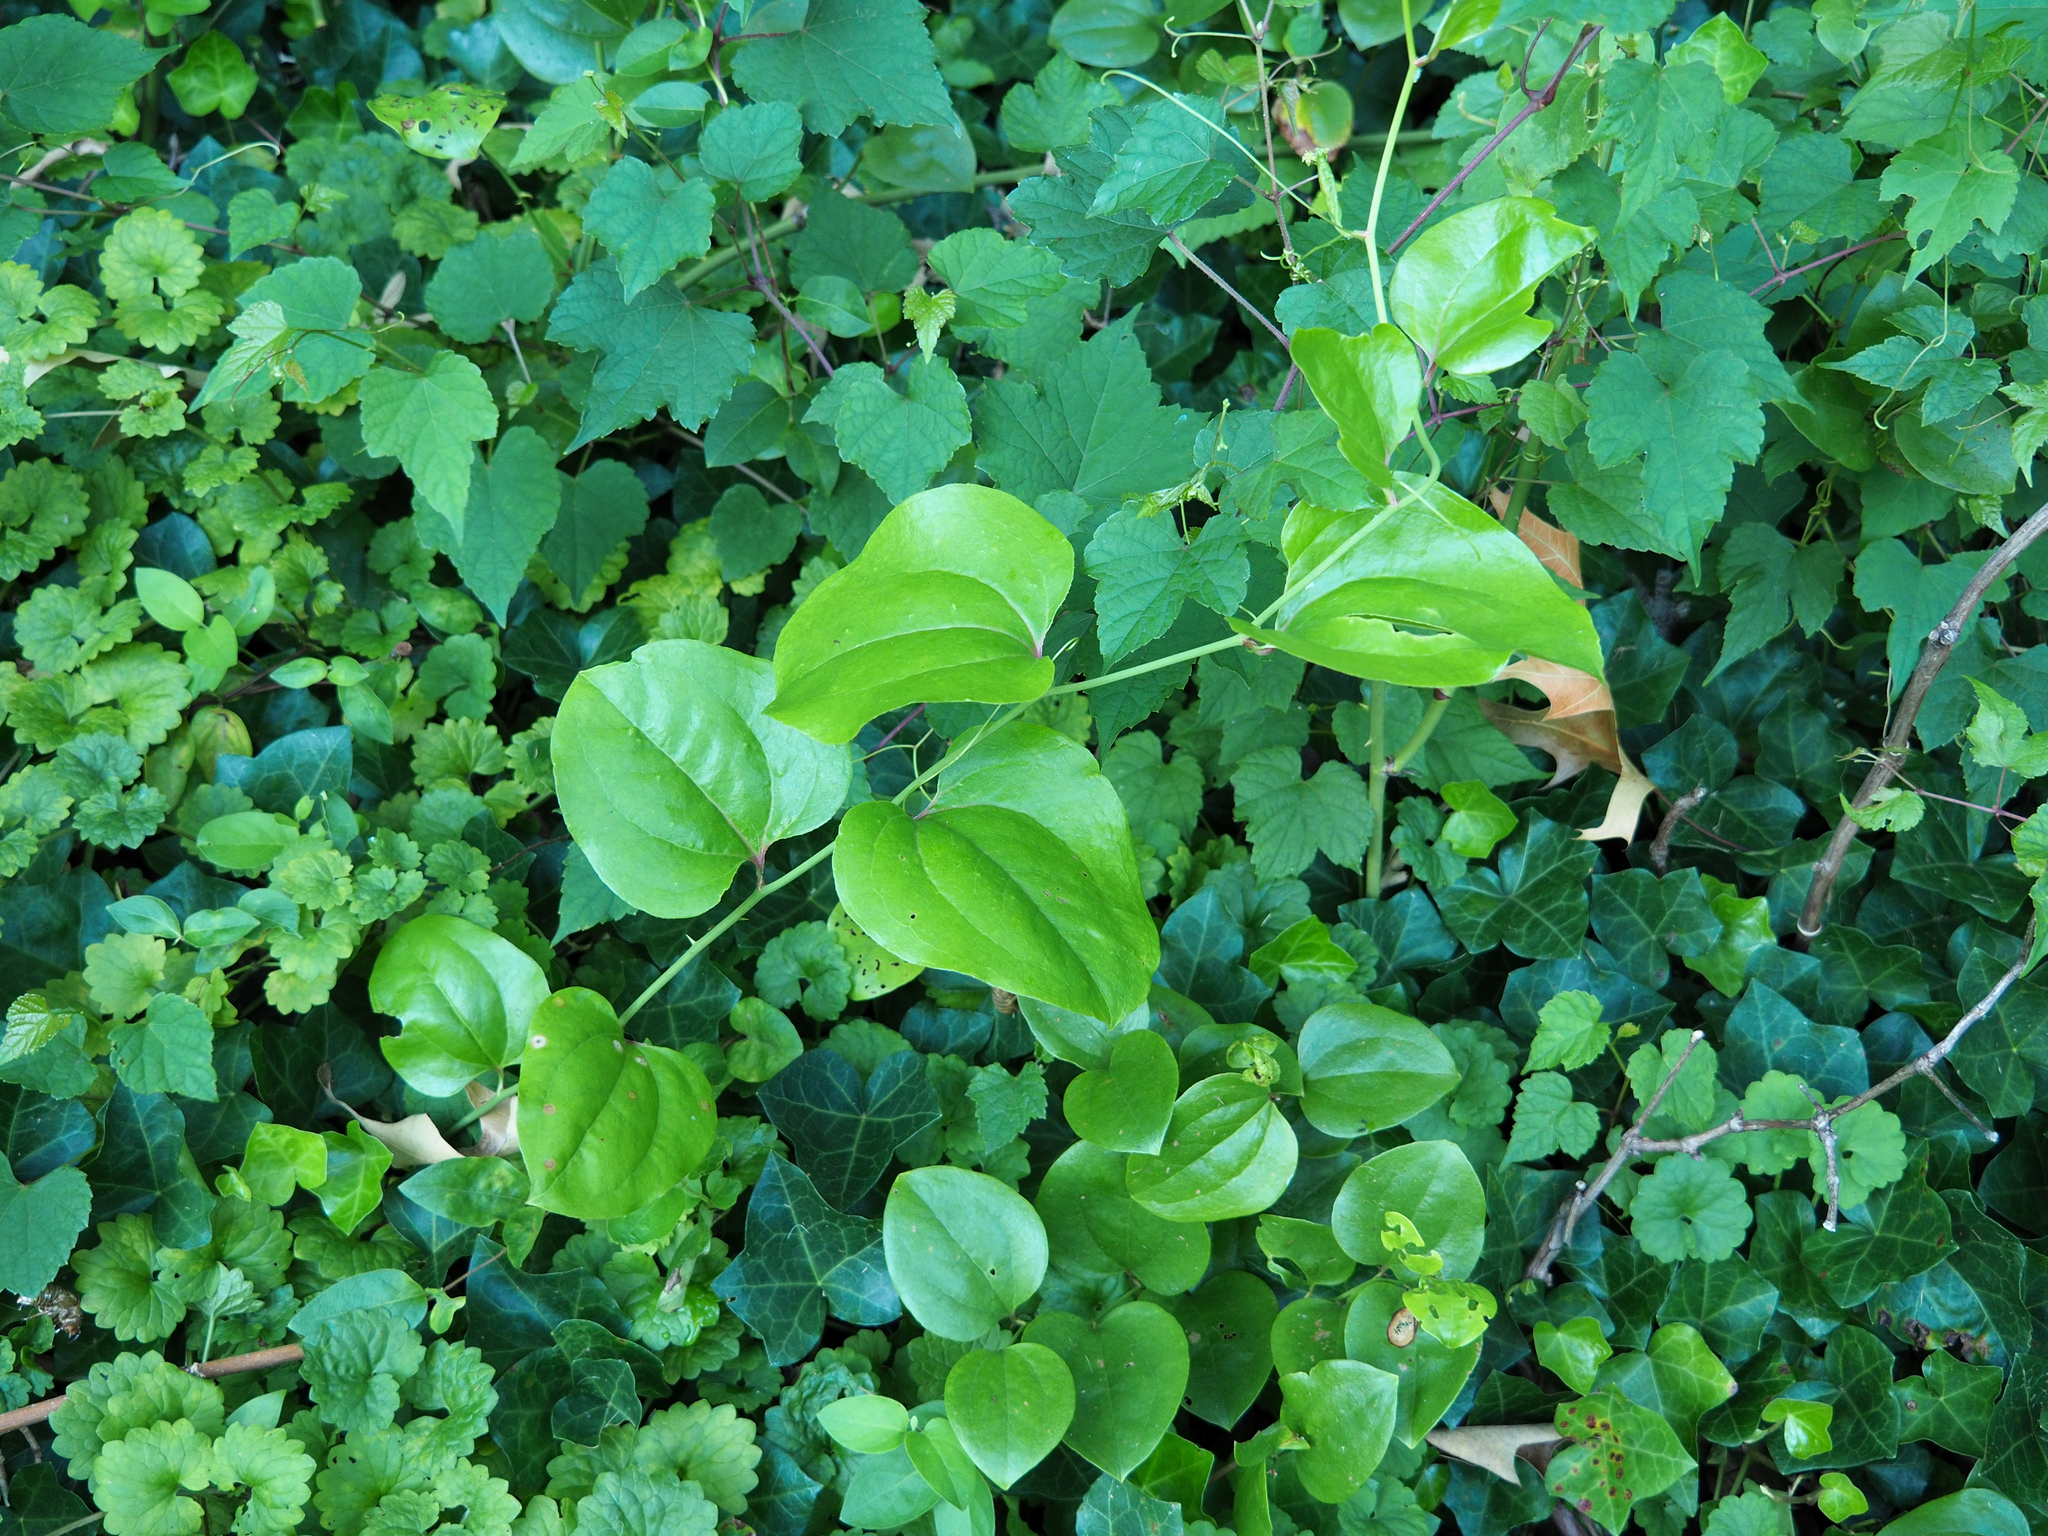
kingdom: Plantae
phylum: Tracheophyta
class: Liliopsida
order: Liliales
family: Smilacaceae
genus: Smilax
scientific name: Smilax rotundifolia
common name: Bullbriar
